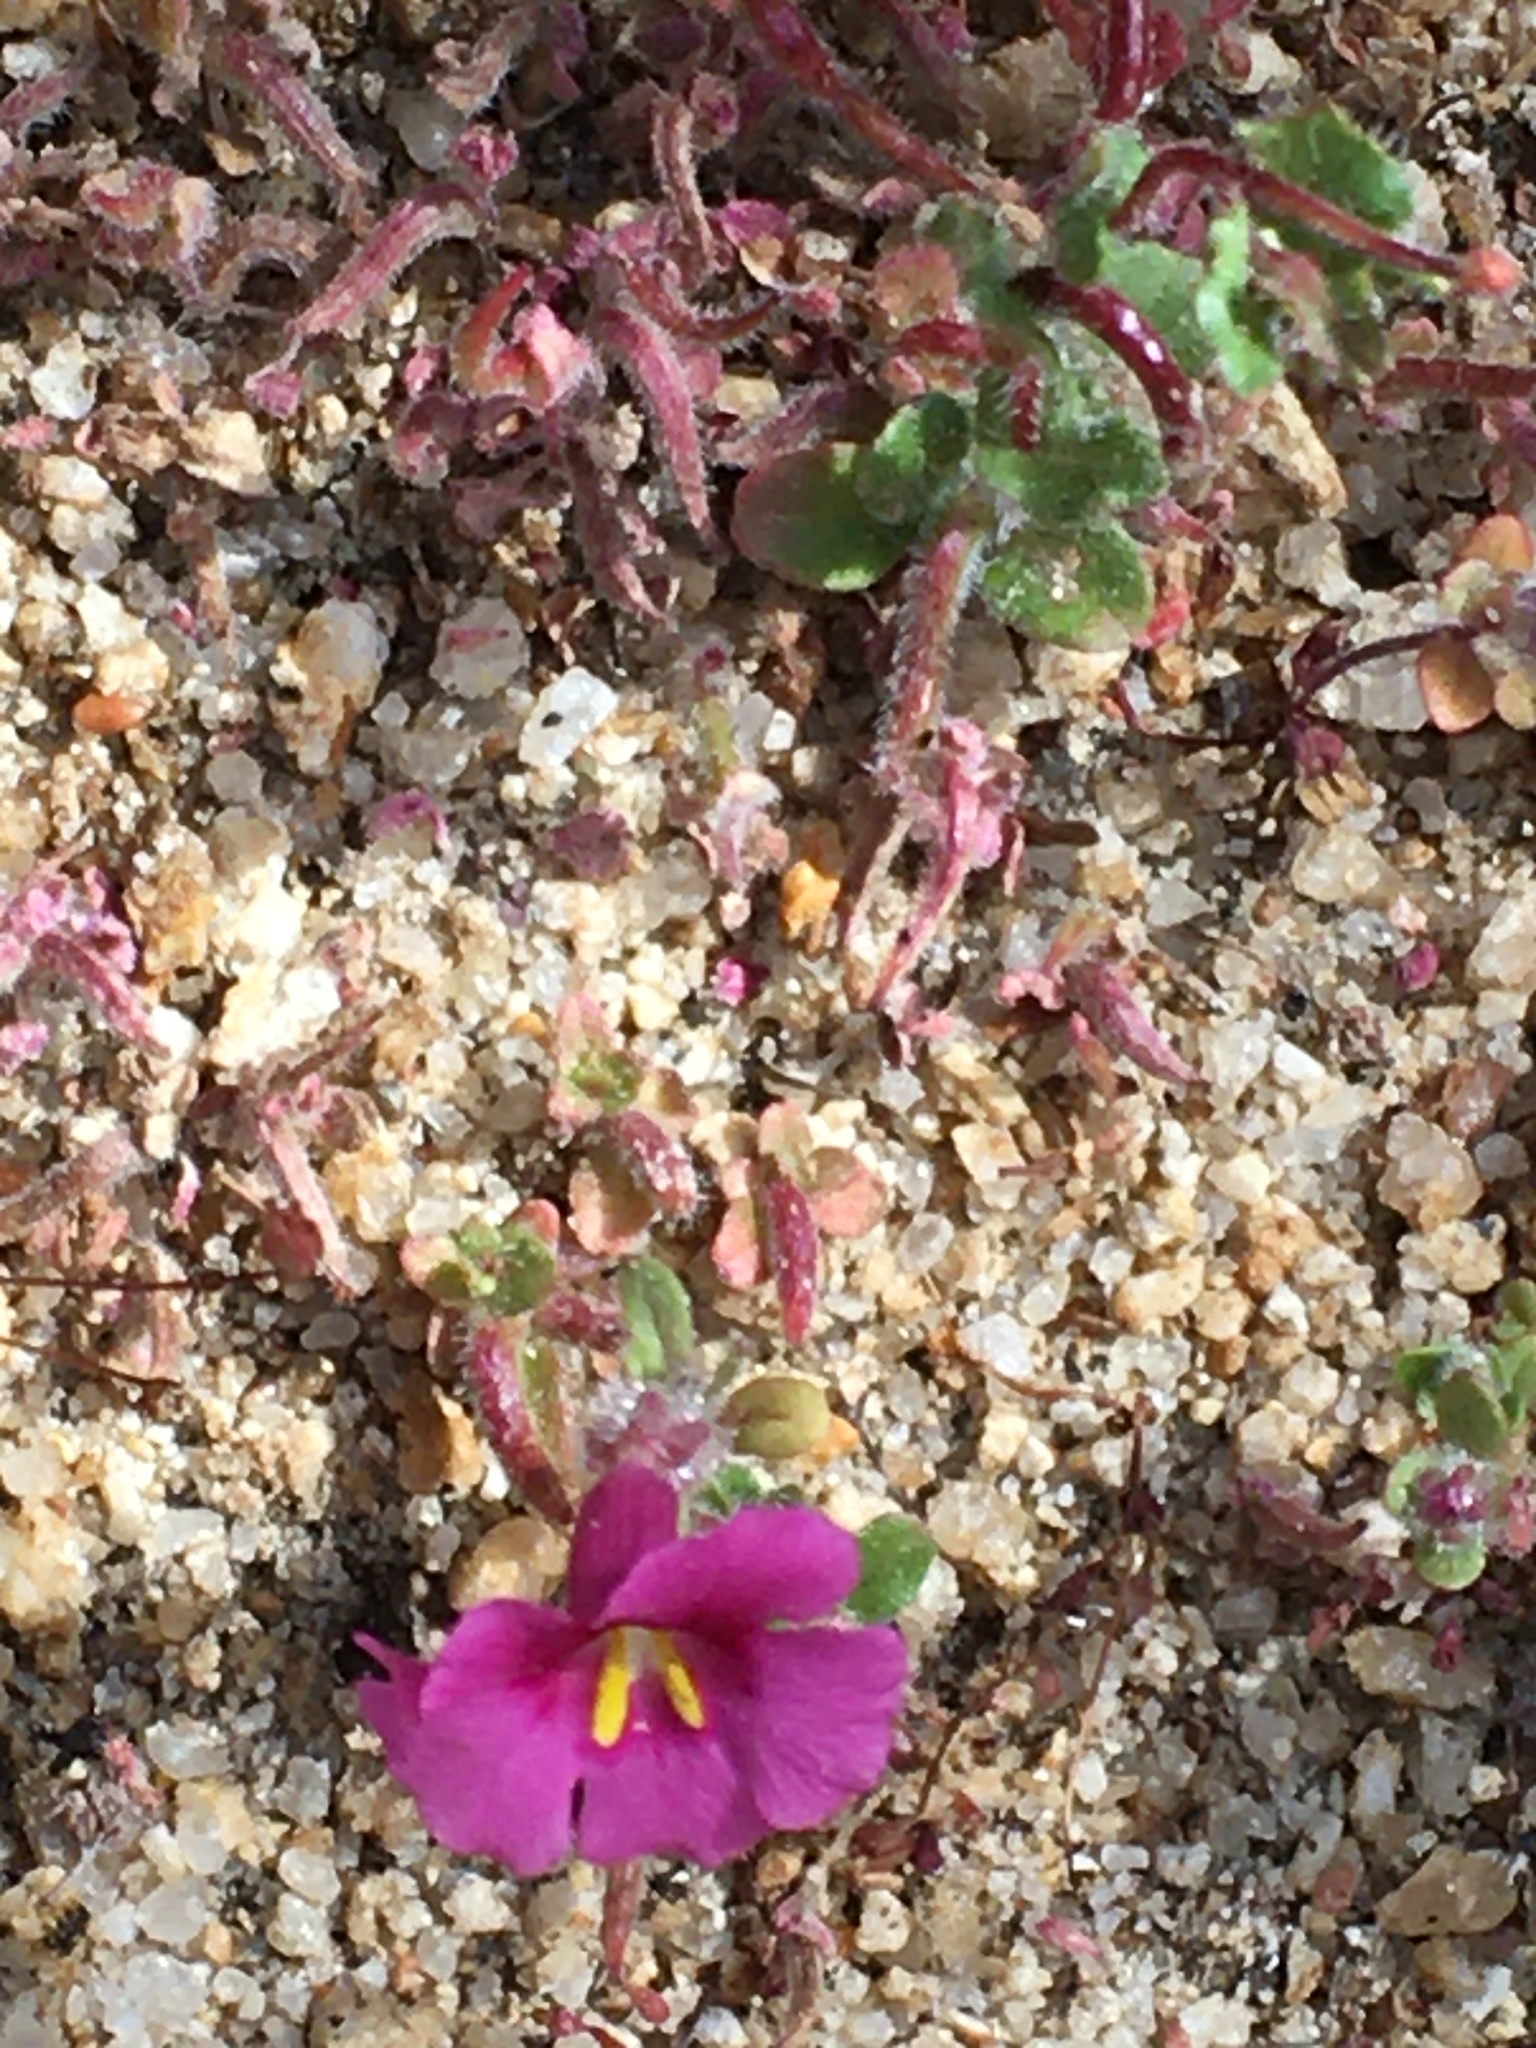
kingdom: Plantae
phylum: Tracheophyta
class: Magnoliopsida
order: Lamiales
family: Phrymaceae
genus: Diplacus
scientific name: Diplacus fremontii
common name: Fremont's monkey-flower
